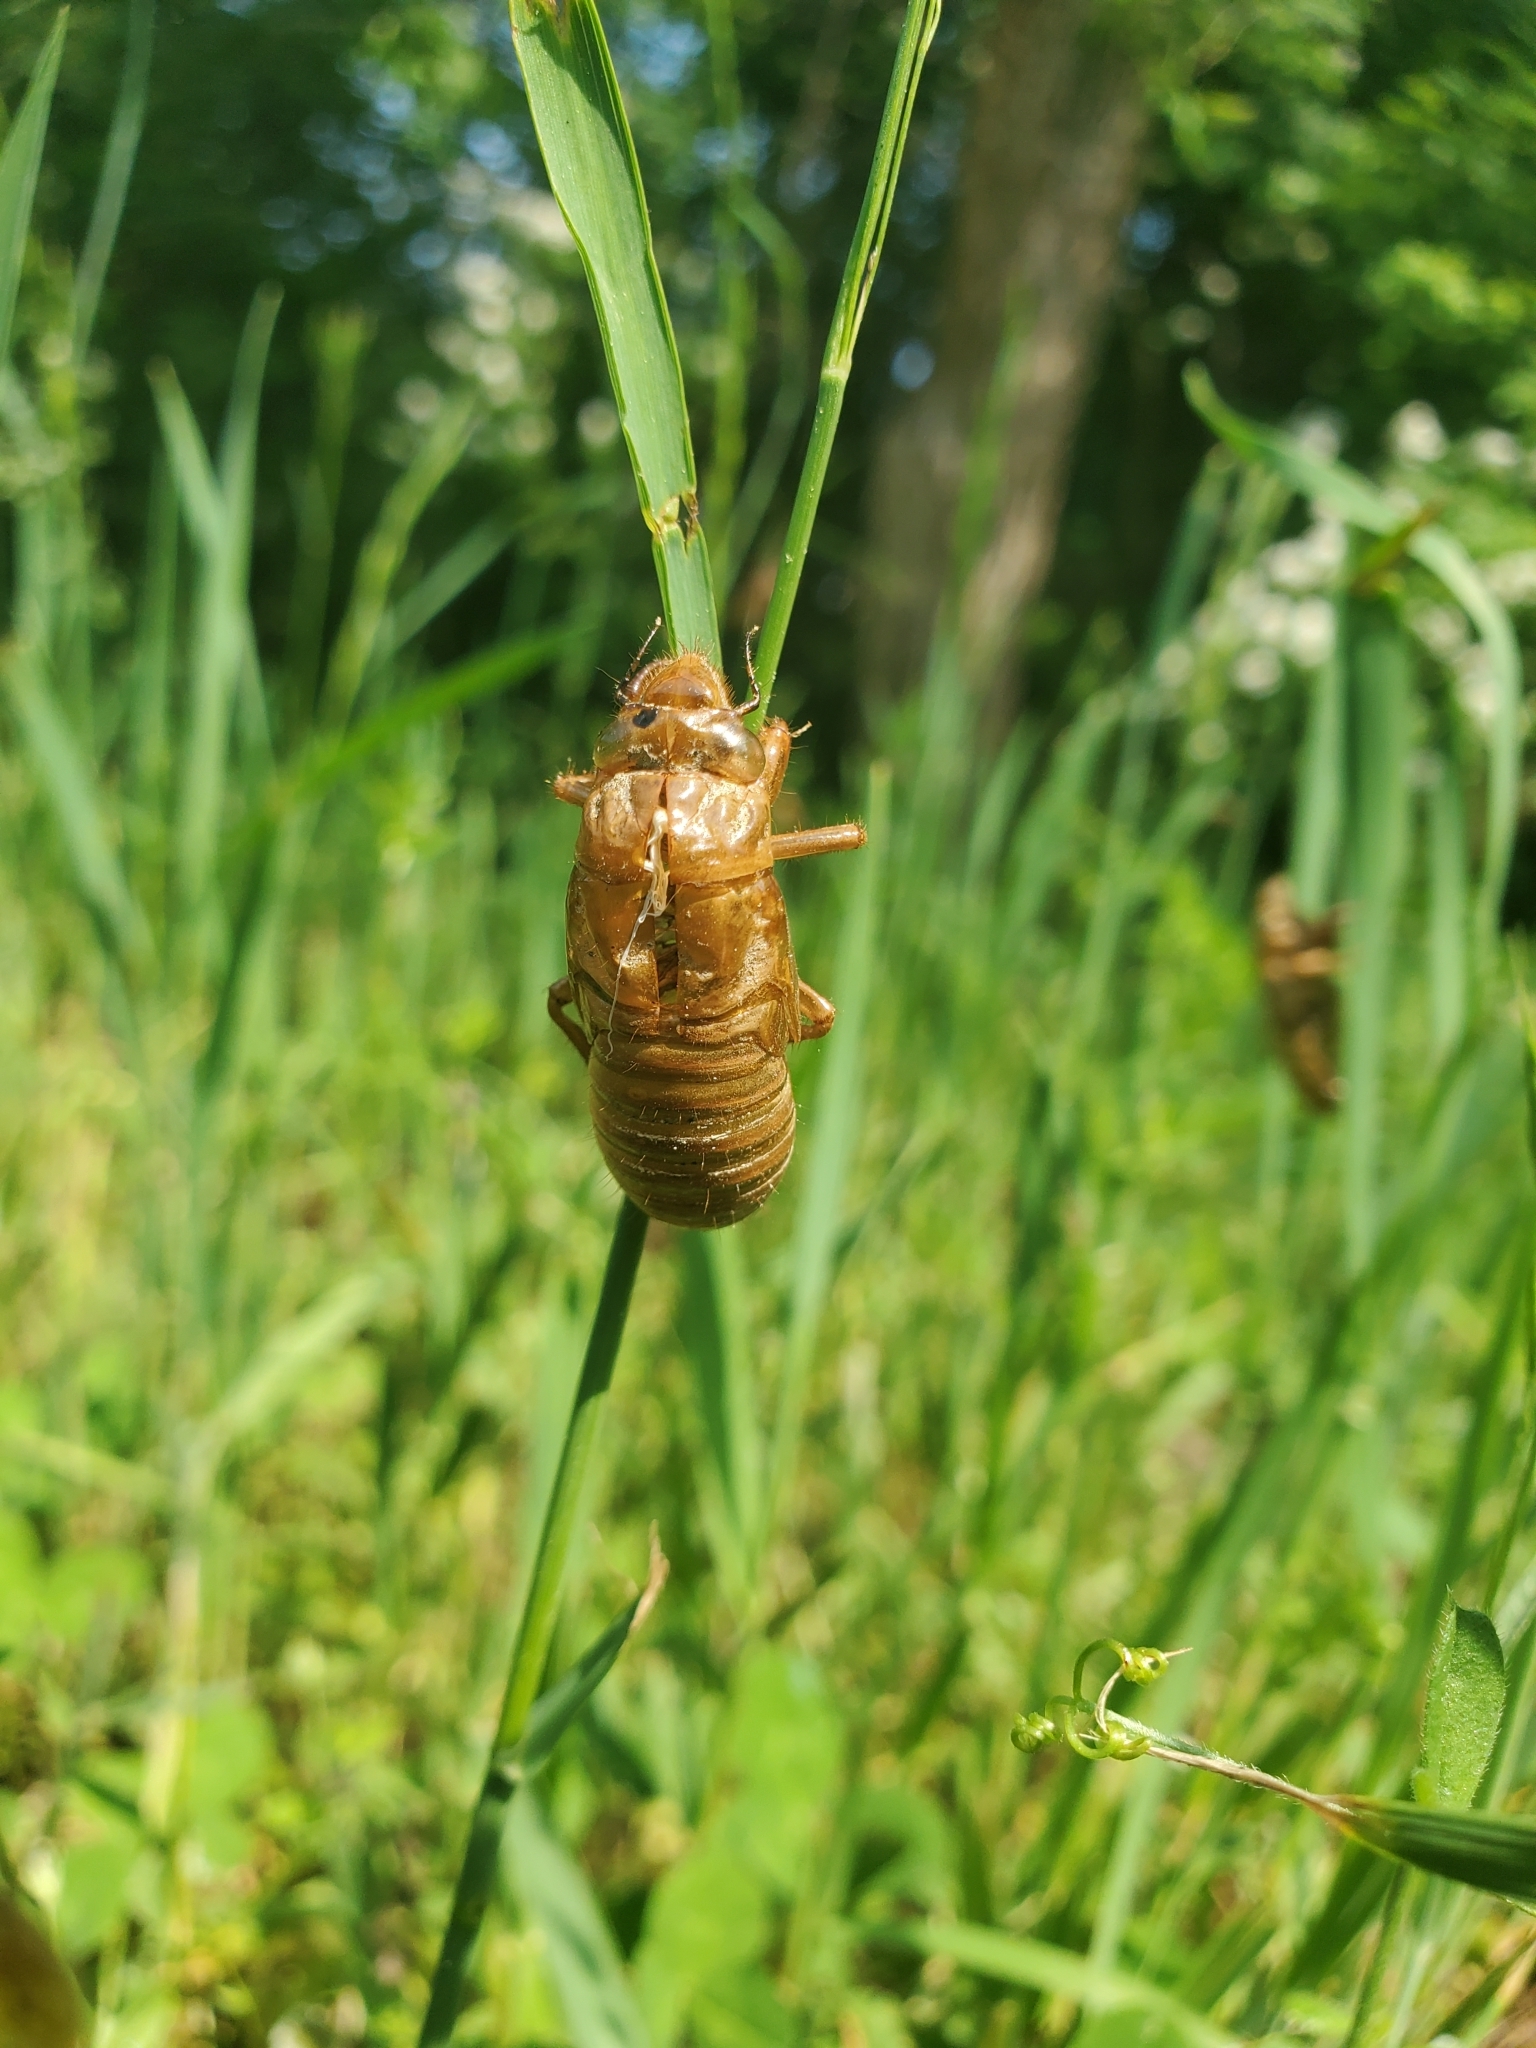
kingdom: Animalia
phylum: Arthropoda
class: Insecta
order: Hemiptera
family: Cicadidae
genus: Magicicada
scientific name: Magicicada
